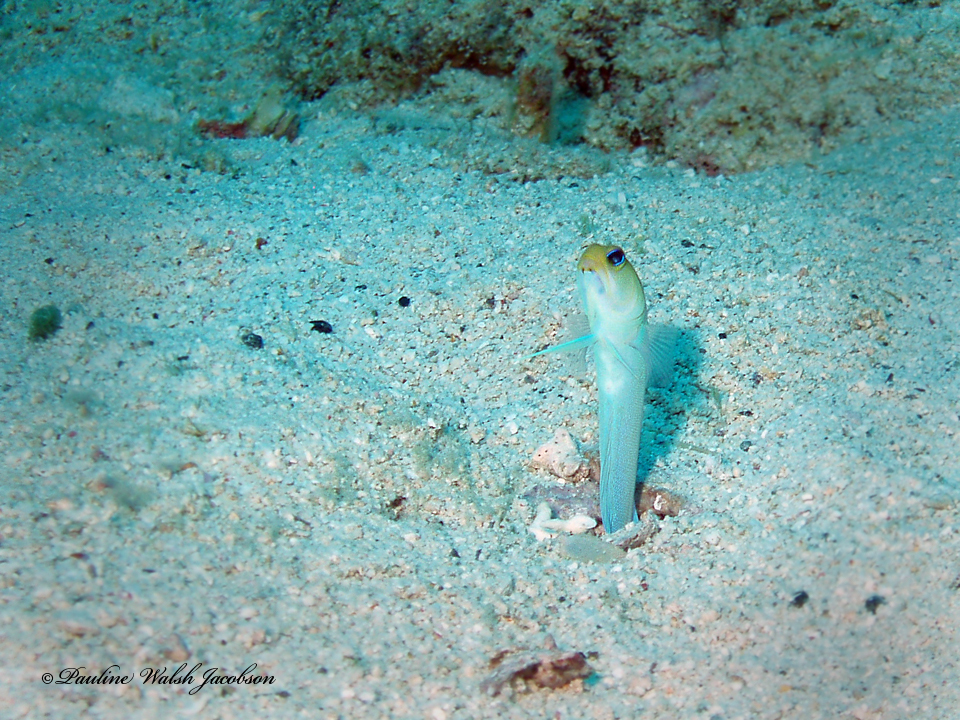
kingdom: Animalia
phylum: Chordata
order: Perciformes
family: Opistognathidae
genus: Opistognathus
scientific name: Opistognathus aurifrons
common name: Yellowhead jawfish
